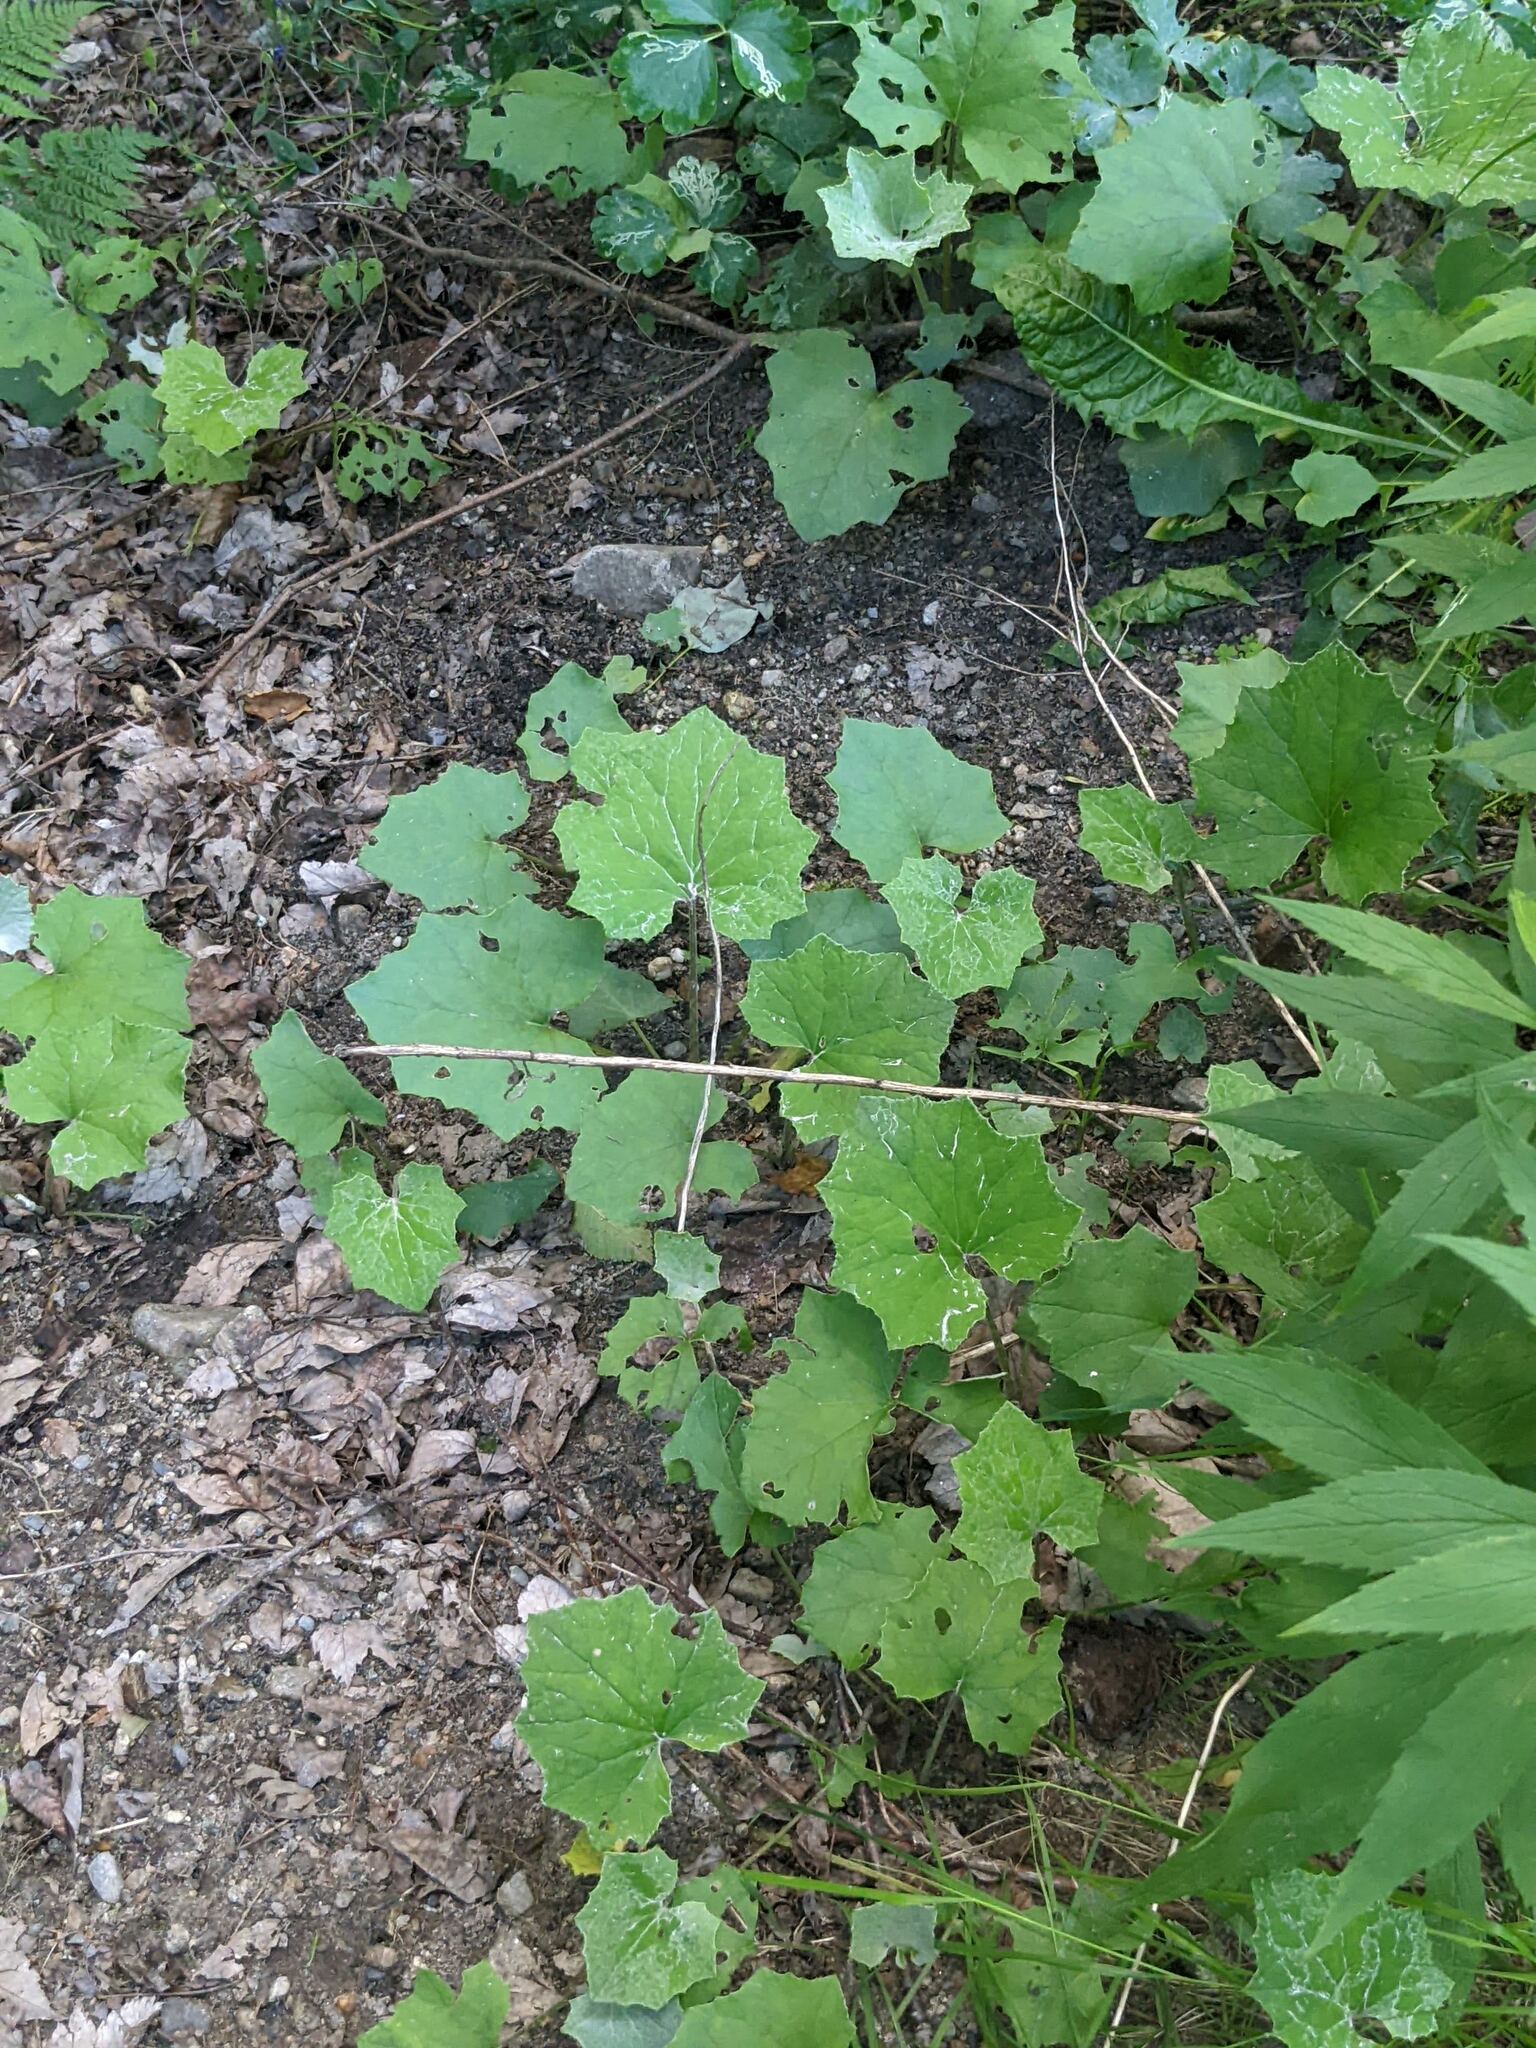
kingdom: Plantae
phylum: Tracheophyta
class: Magnoliopsida
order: Asterales
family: Asteraceae
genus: Tussilago
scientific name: Tussilago farfara
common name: Coltsfoot
